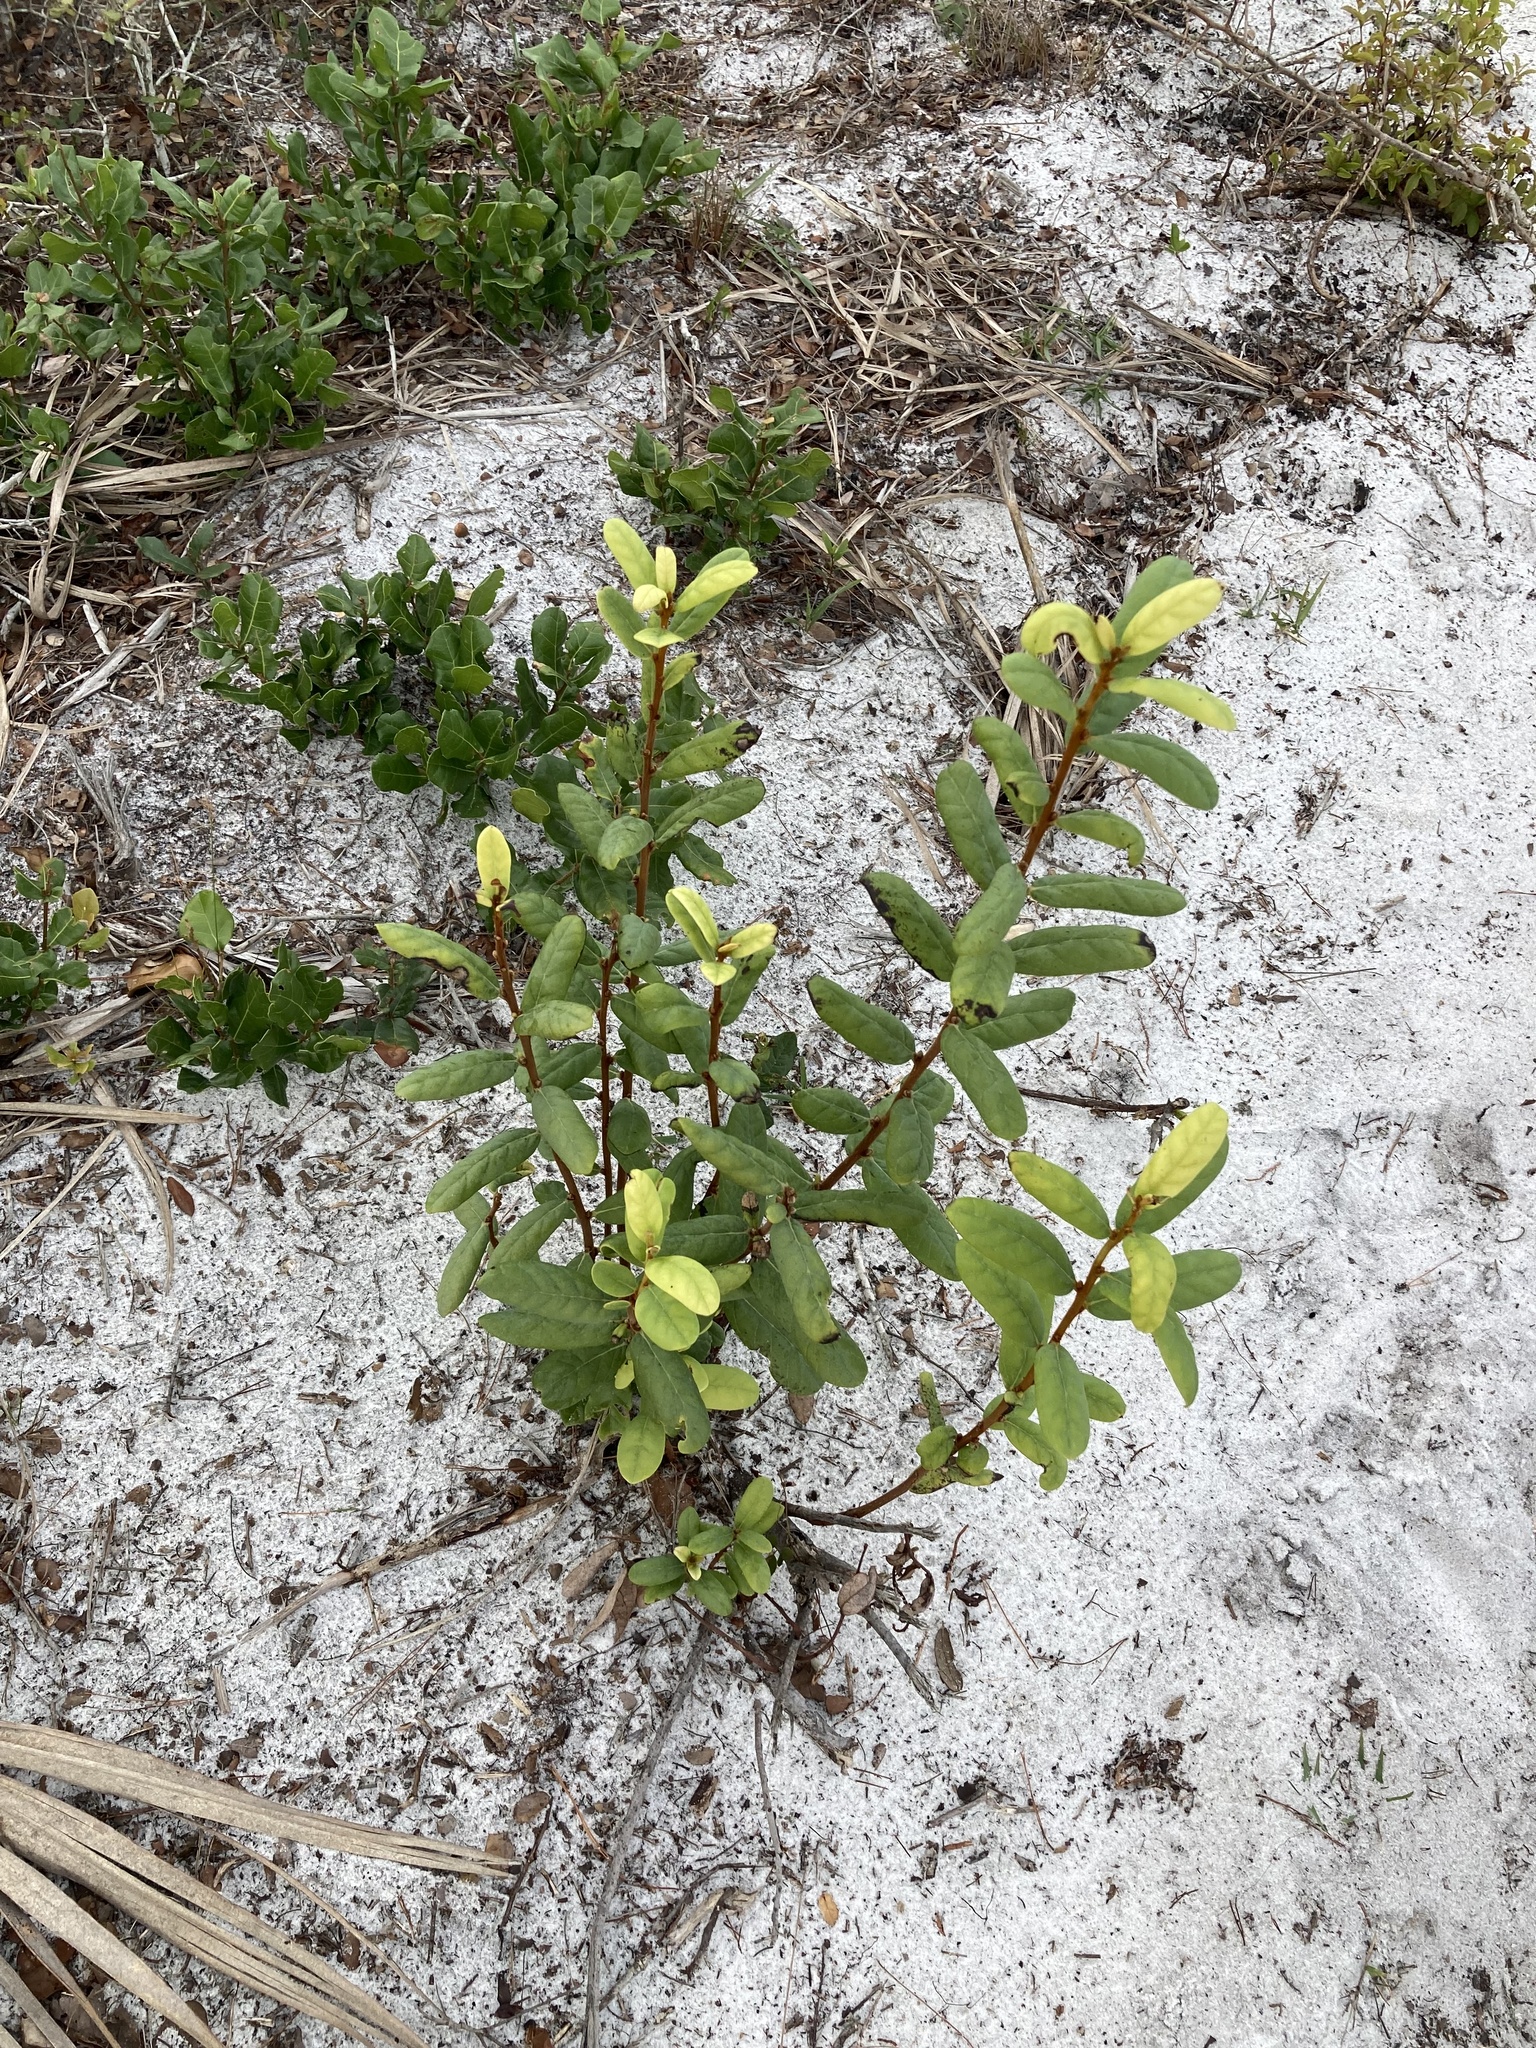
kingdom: Plantae
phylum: Tracheophyta
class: Magnoliopsida
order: Magnoliales
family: Annonaceae
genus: Asimina
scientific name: Asimina reticulata
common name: Flag pawpaw
